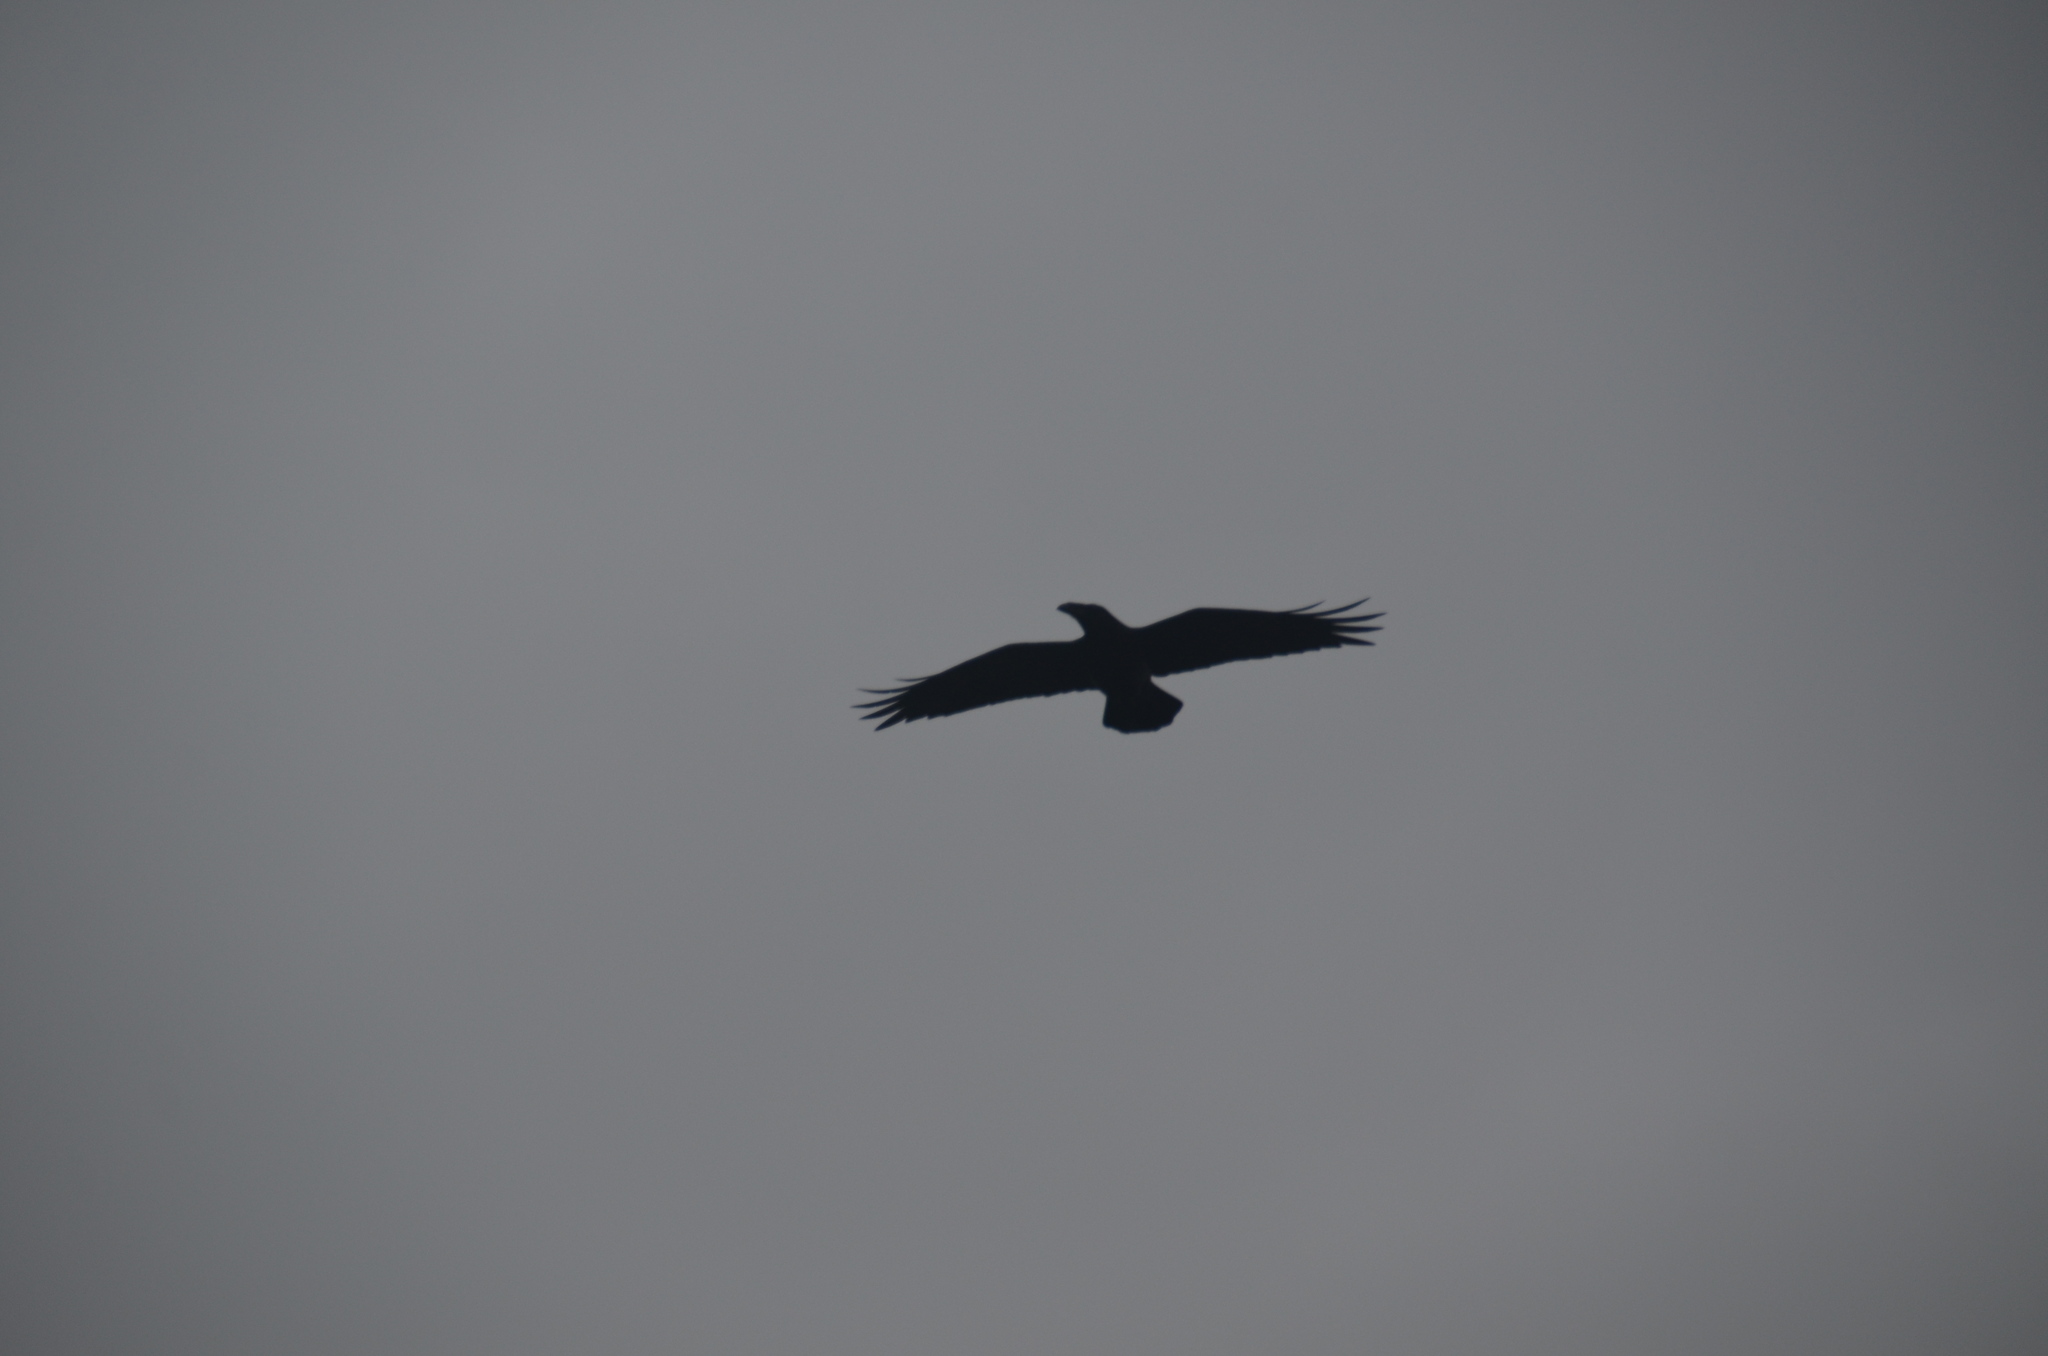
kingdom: Animalia
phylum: Chordata
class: Aves
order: Passeriformes
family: Corvidae
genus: Corvus
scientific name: Corvus corax
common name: Common raven
